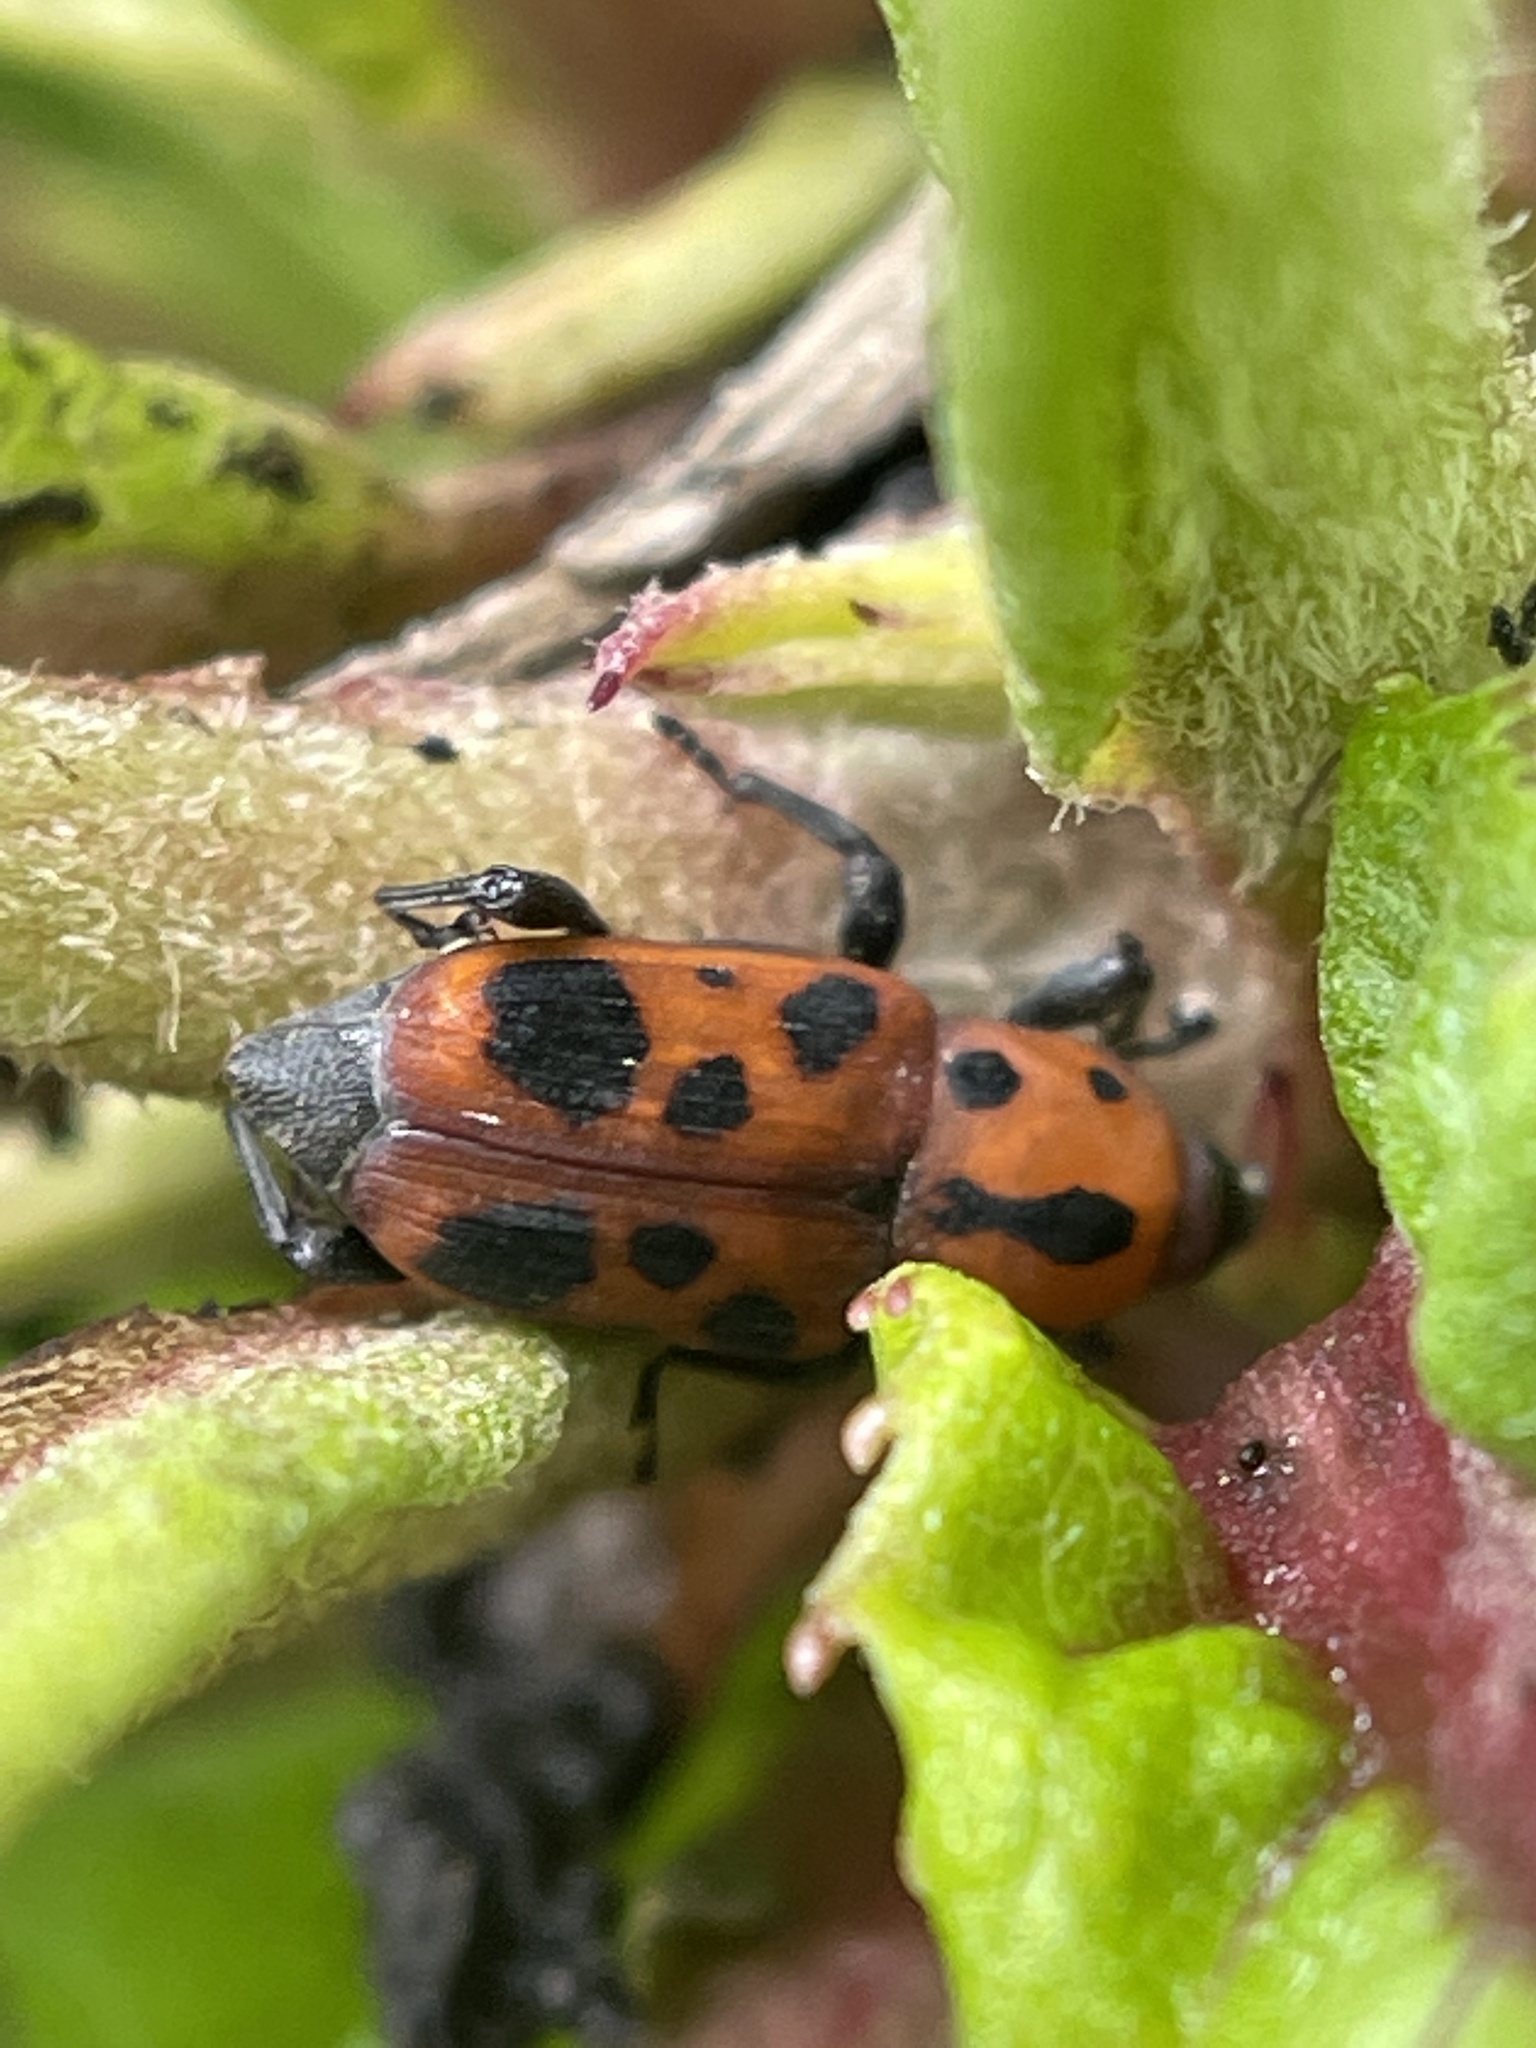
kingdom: Animalia
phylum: Arthropoda
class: Insecta
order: Coleoptera
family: Dryophthoridae
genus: Rhodobaenus
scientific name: Rhodobaenus quinquepunctatus
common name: Cocklebur weevil
